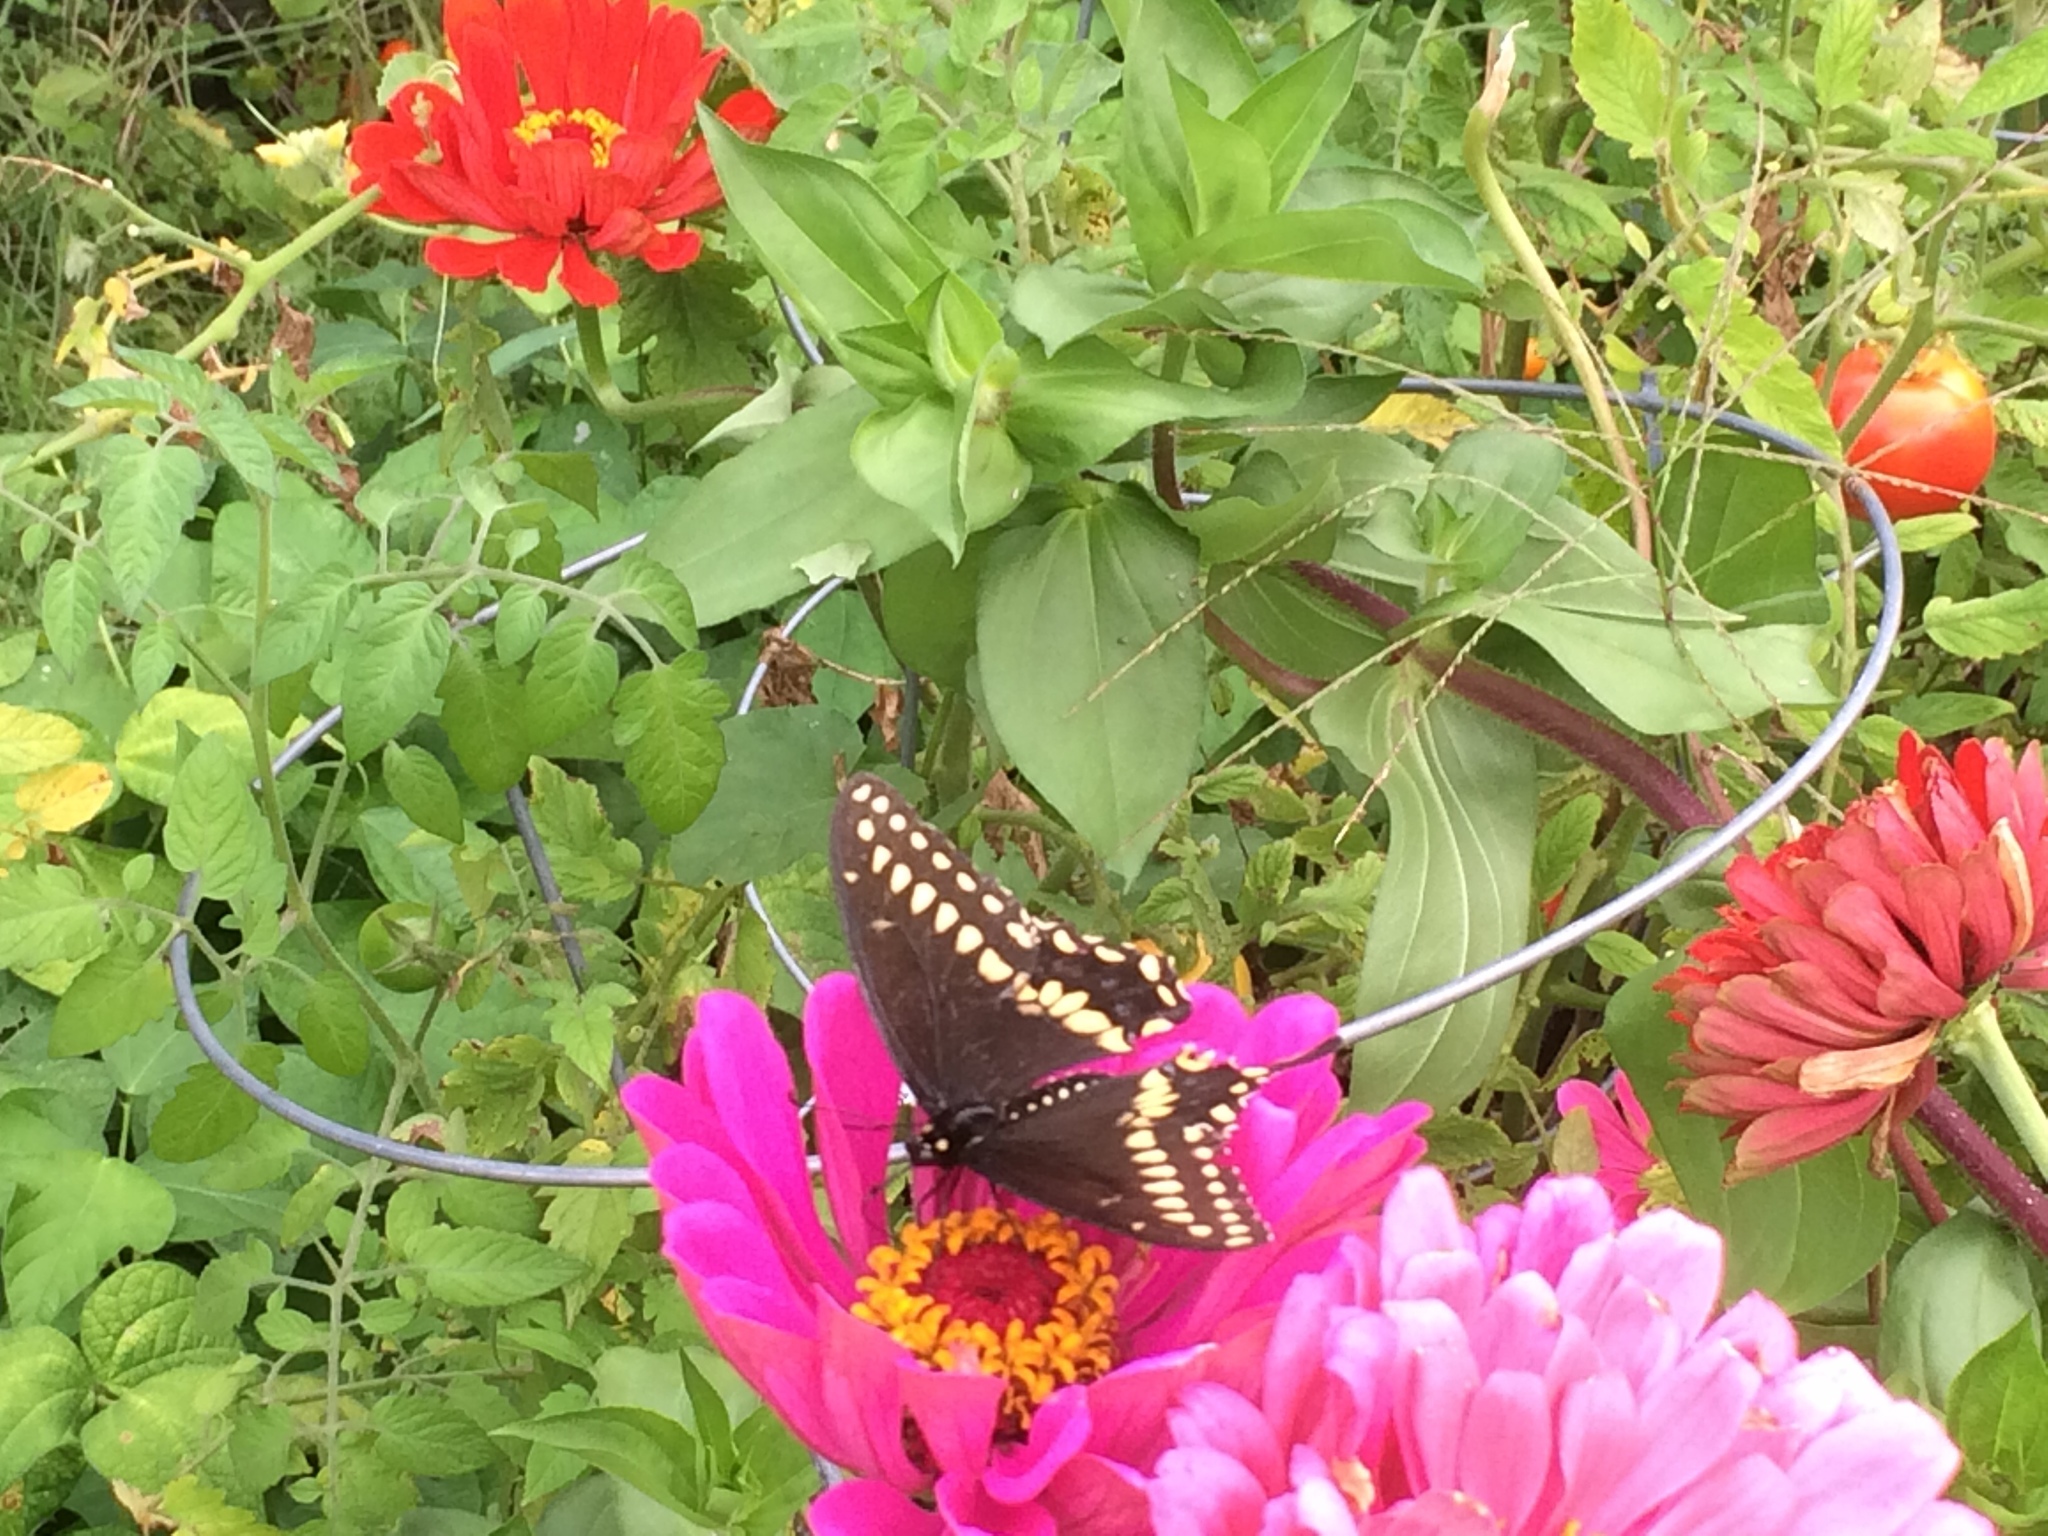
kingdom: Animalia
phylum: Arthropoda
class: Insecta
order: Lepidoptera
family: Papilionidae
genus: Papilio
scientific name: Papilio polyxenes
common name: Black swallowtail
